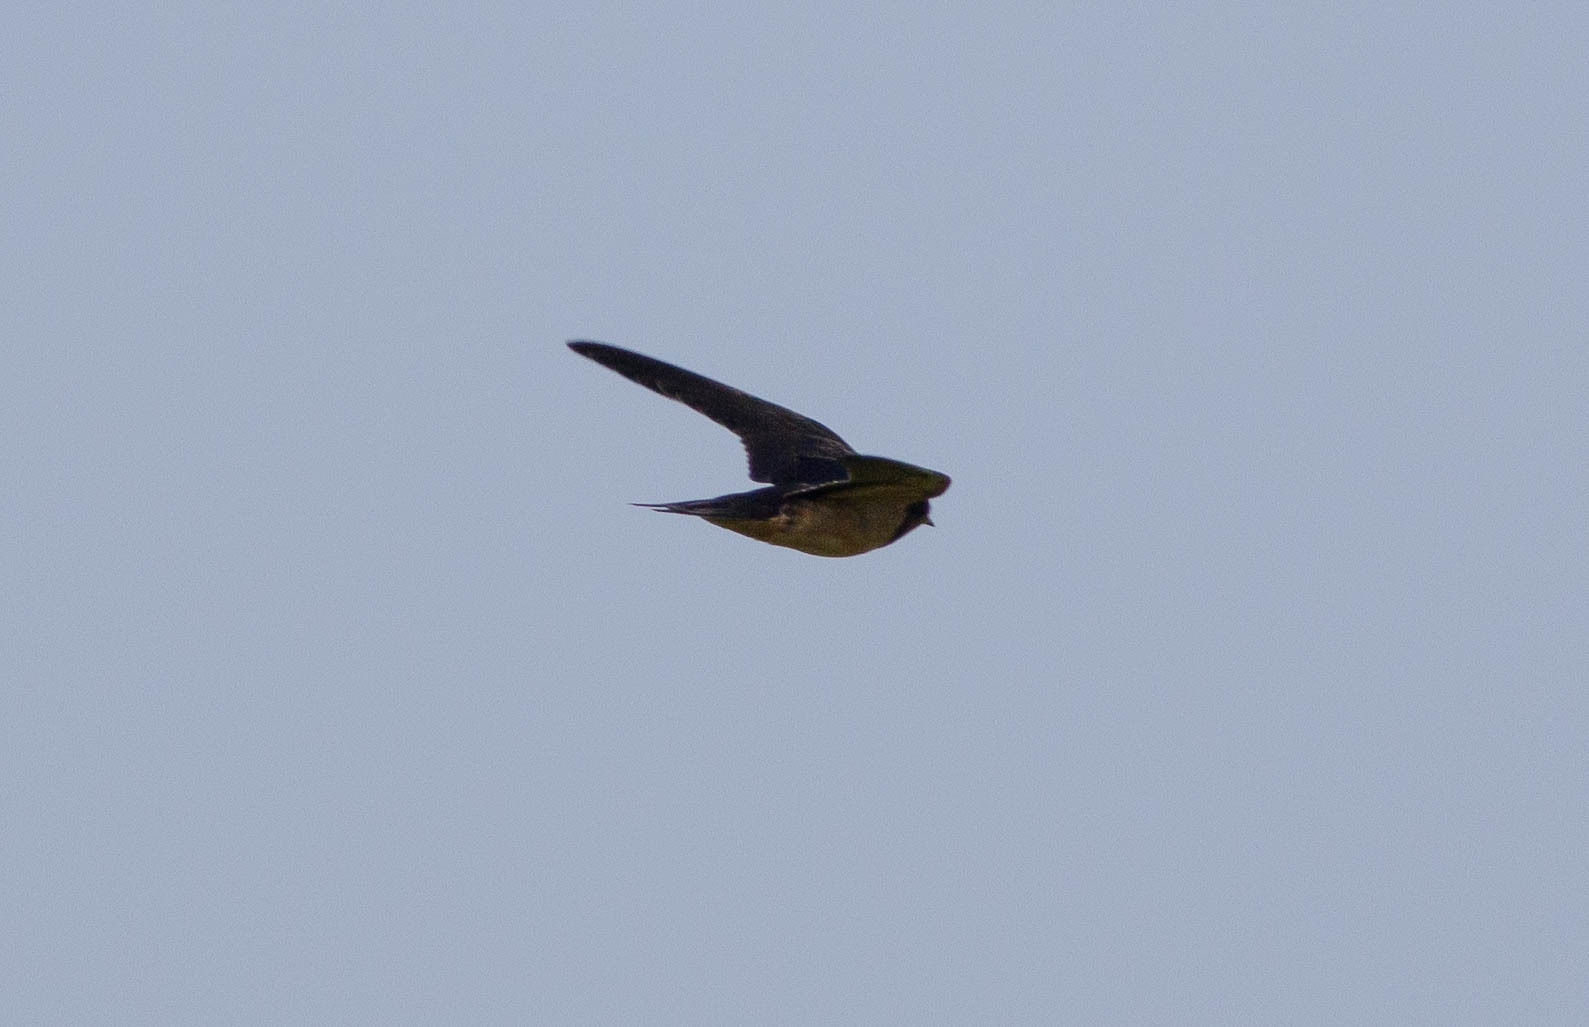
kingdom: Animalia
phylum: Chordata
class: Aves
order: Passeriformes
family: Hirundinidae
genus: Hirundo
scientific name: Hirundo rustica
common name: Barn swallow
